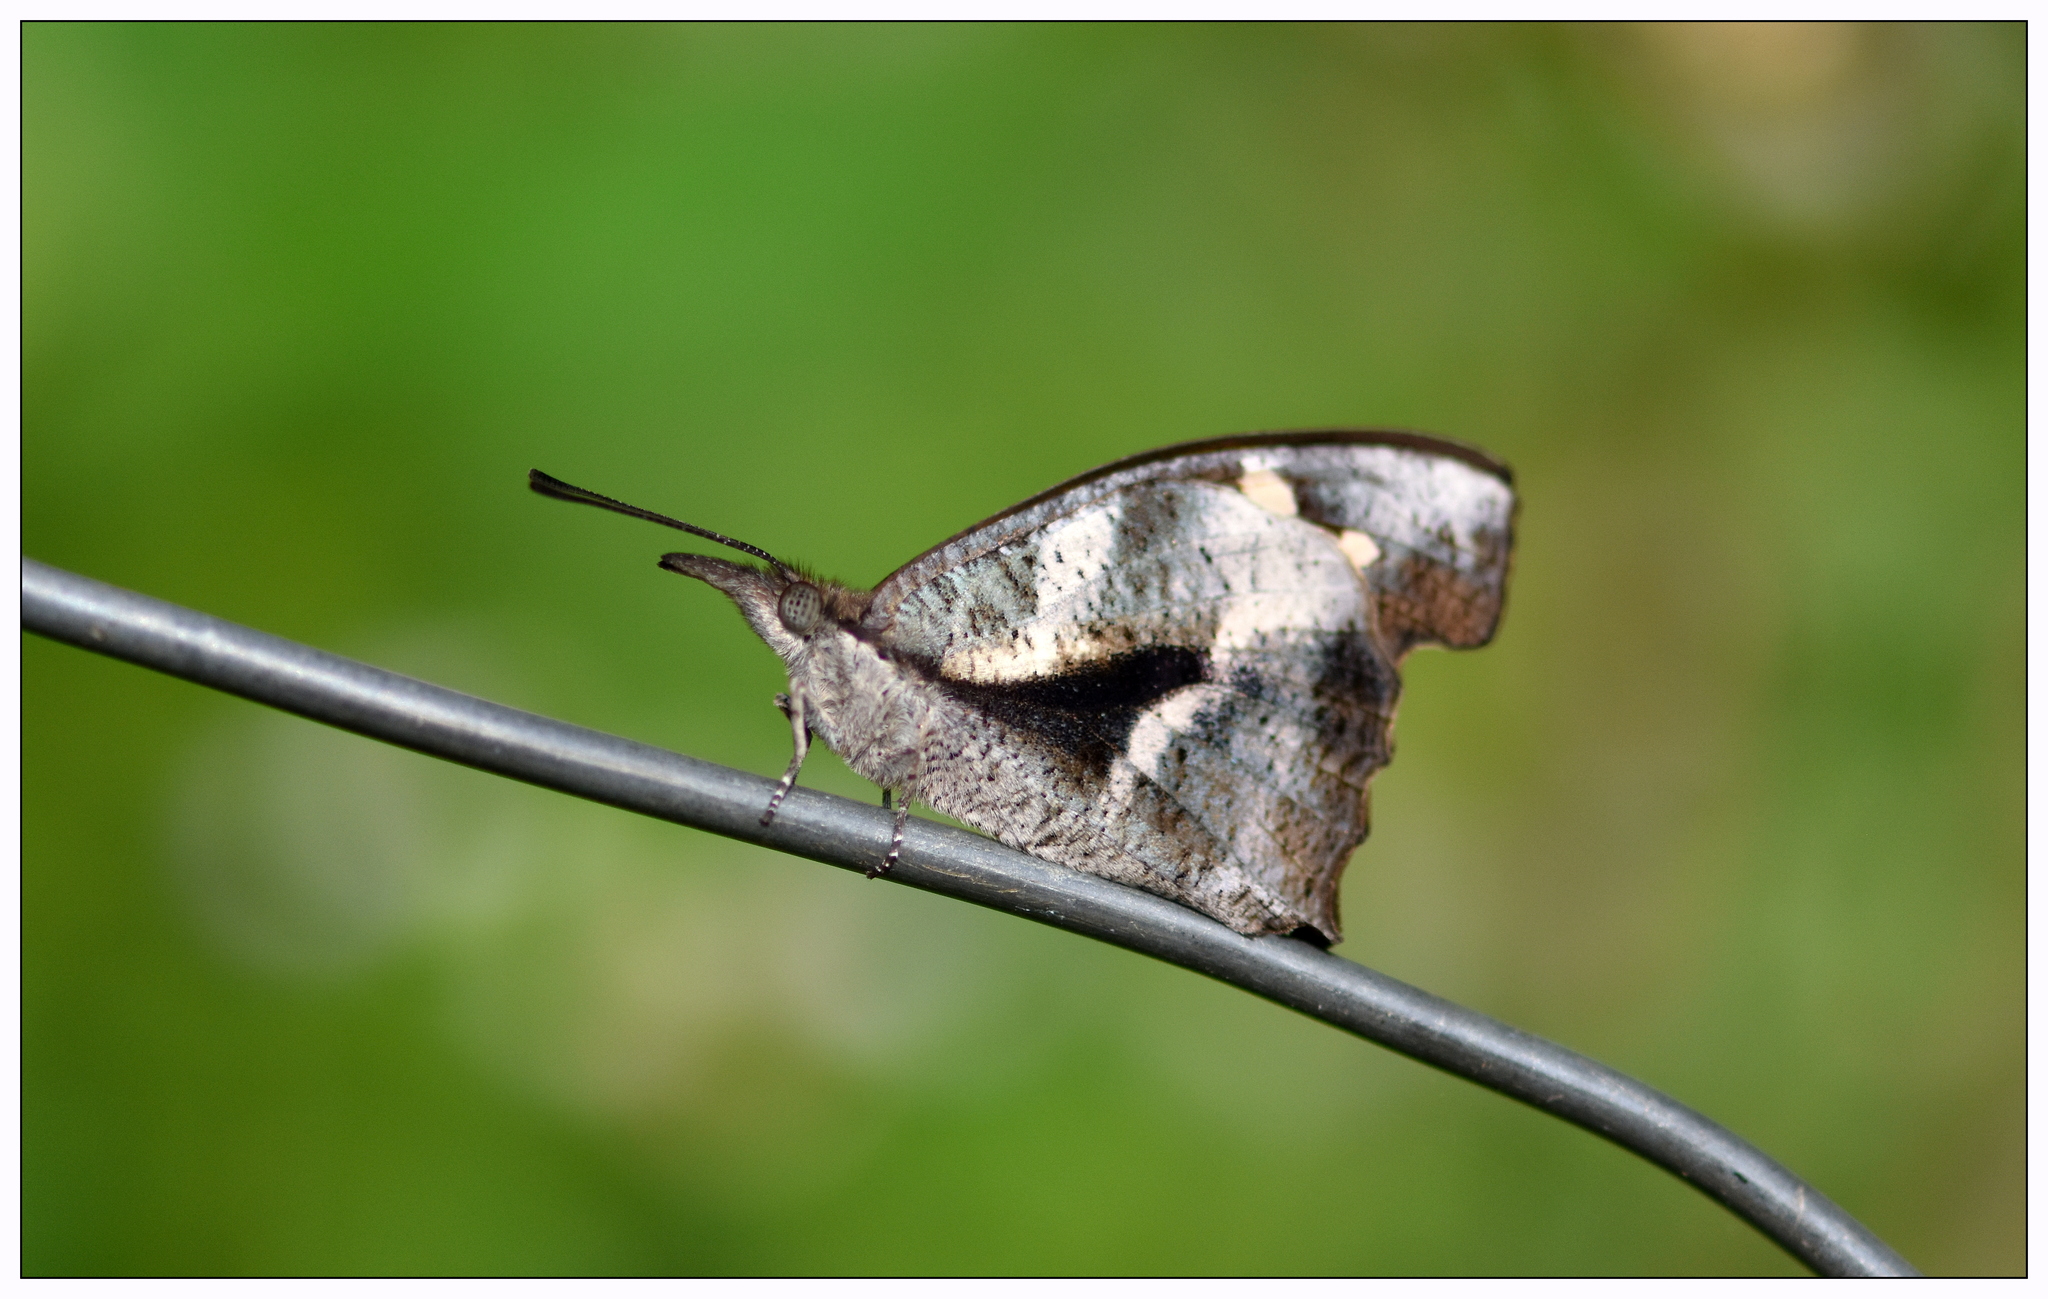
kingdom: Animalia
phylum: Arthropoda
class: Insecta
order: Lepidoptera
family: Nymphalidae
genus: Libythea
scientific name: Libythea myrrha
